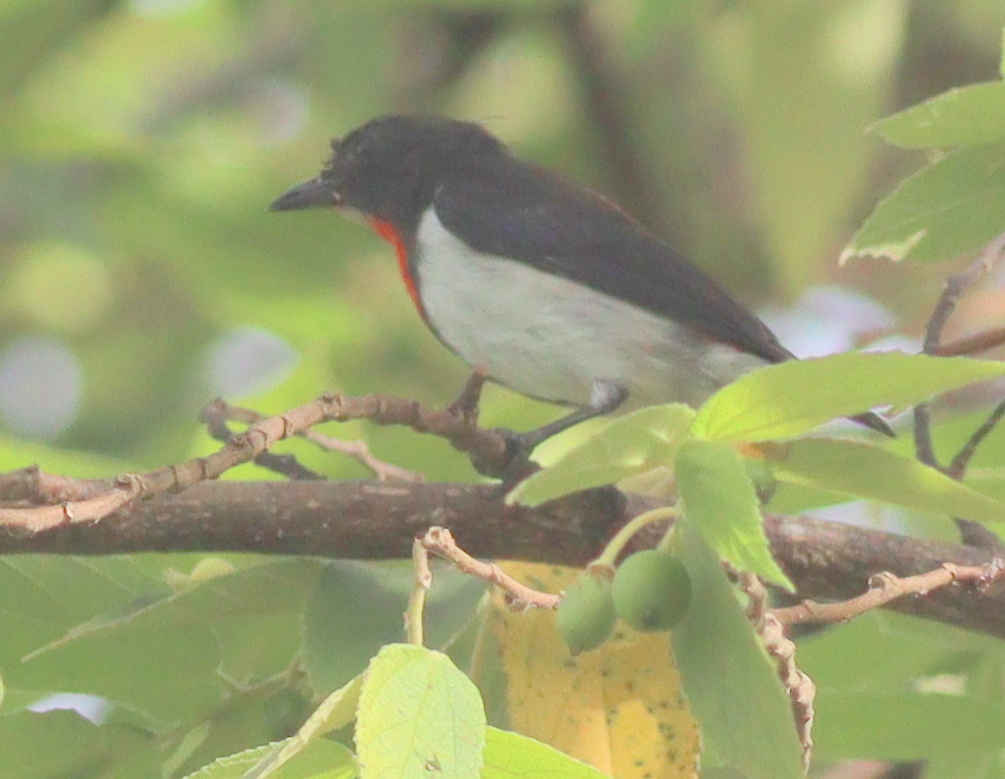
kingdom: Animalia
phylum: Chordata
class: Aves
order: Passeriformes
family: Dicaeidae
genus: Dicaeum
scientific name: Dicaeum maugei
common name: Blue-cheeked flowerpecker
